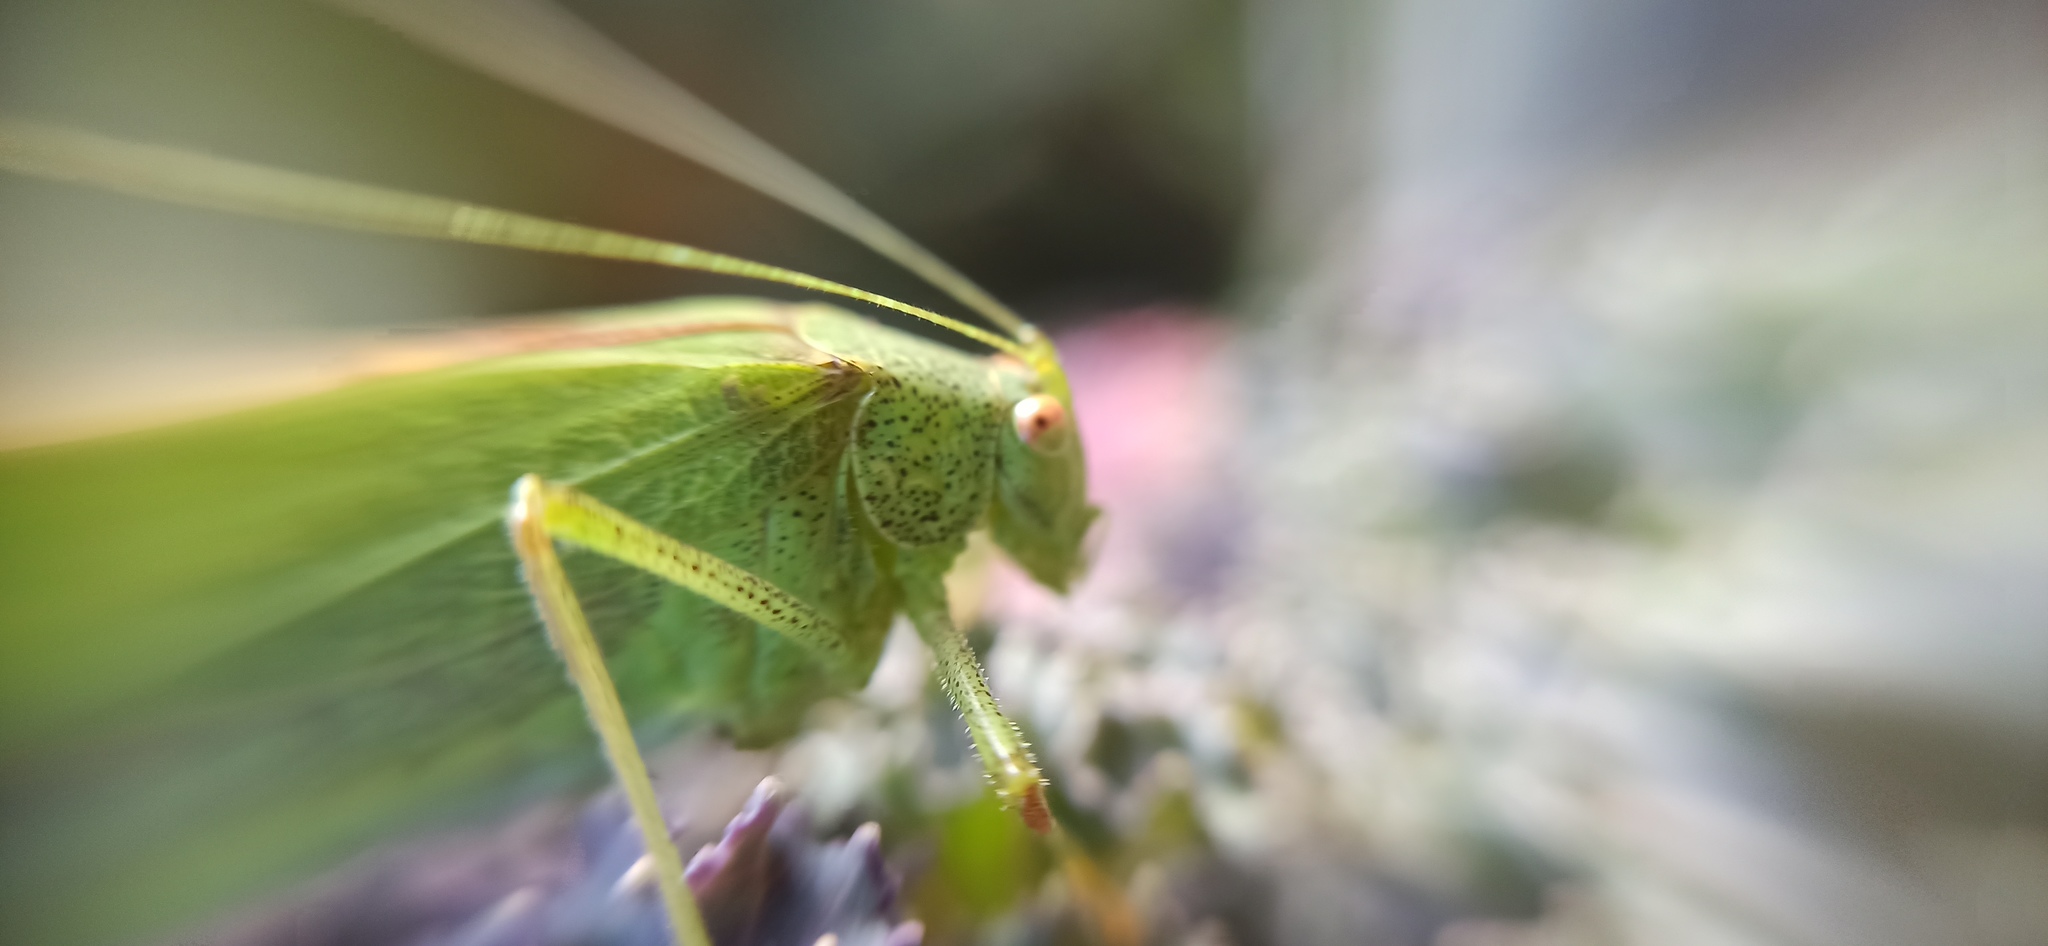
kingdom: Animalia
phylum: Arthropoda
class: Insecta
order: Orthoptera
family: Tettigoniidae
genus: Phaneroptera
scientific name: Phaneroptera nana
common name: Southern sickle bush-cricket
